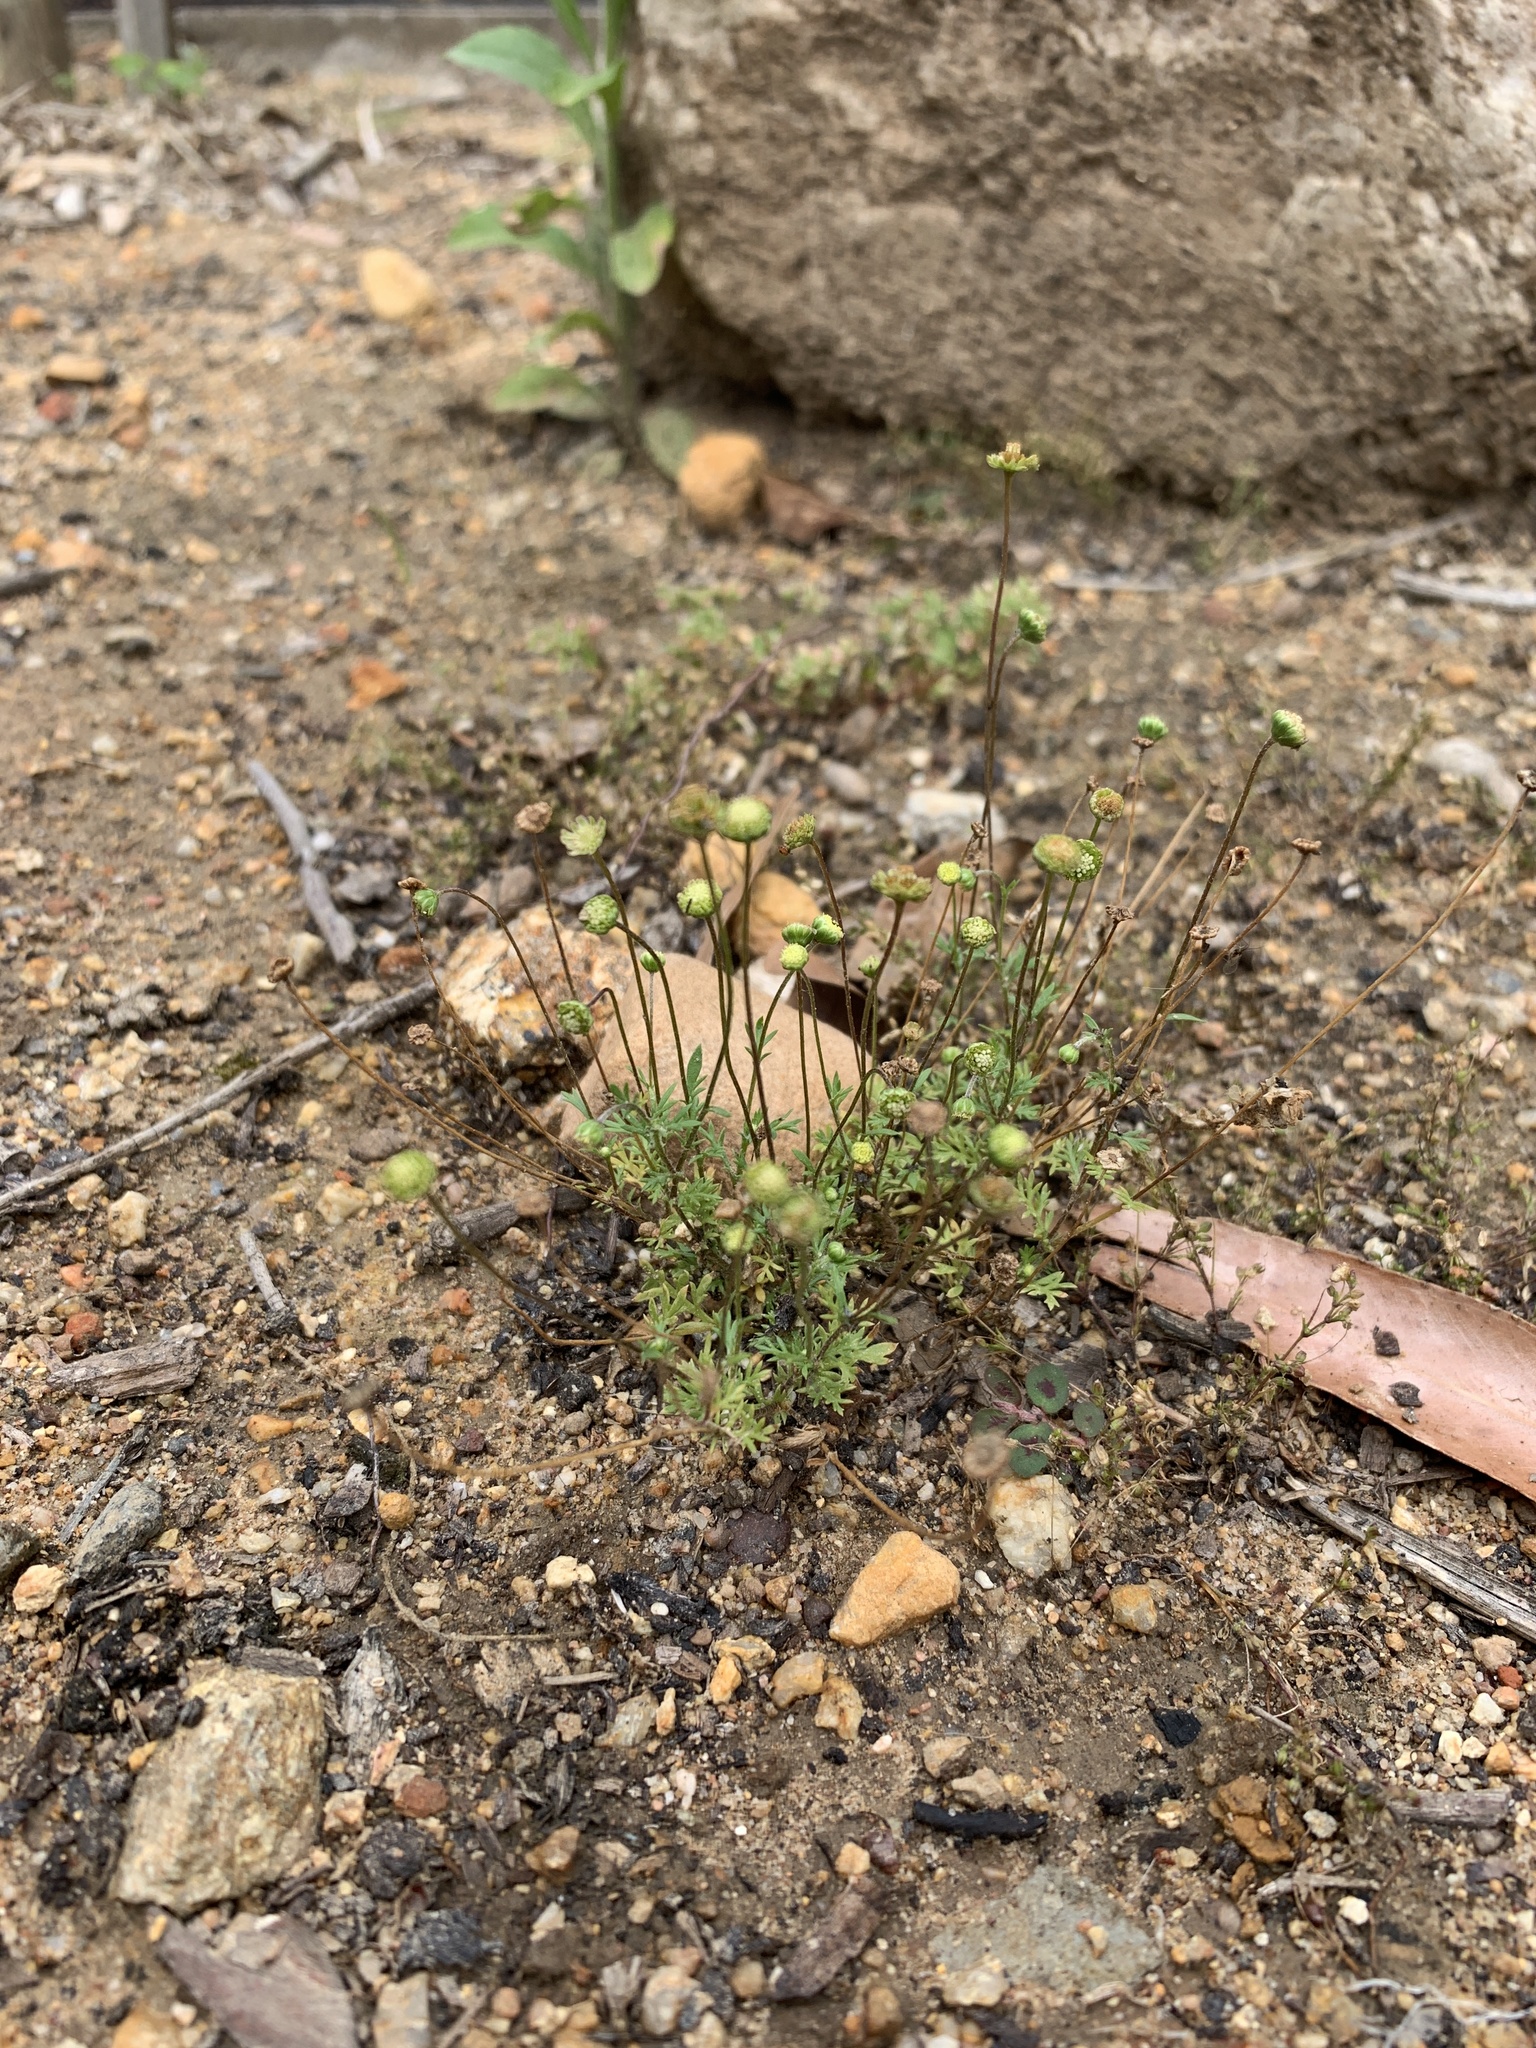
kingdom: Plantae
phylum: Tracheophyta
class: Magnoliopsida
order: Asterales
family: Asteraceae
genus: Cotula
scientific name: Cotula australis
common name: Australian waterbuttons
